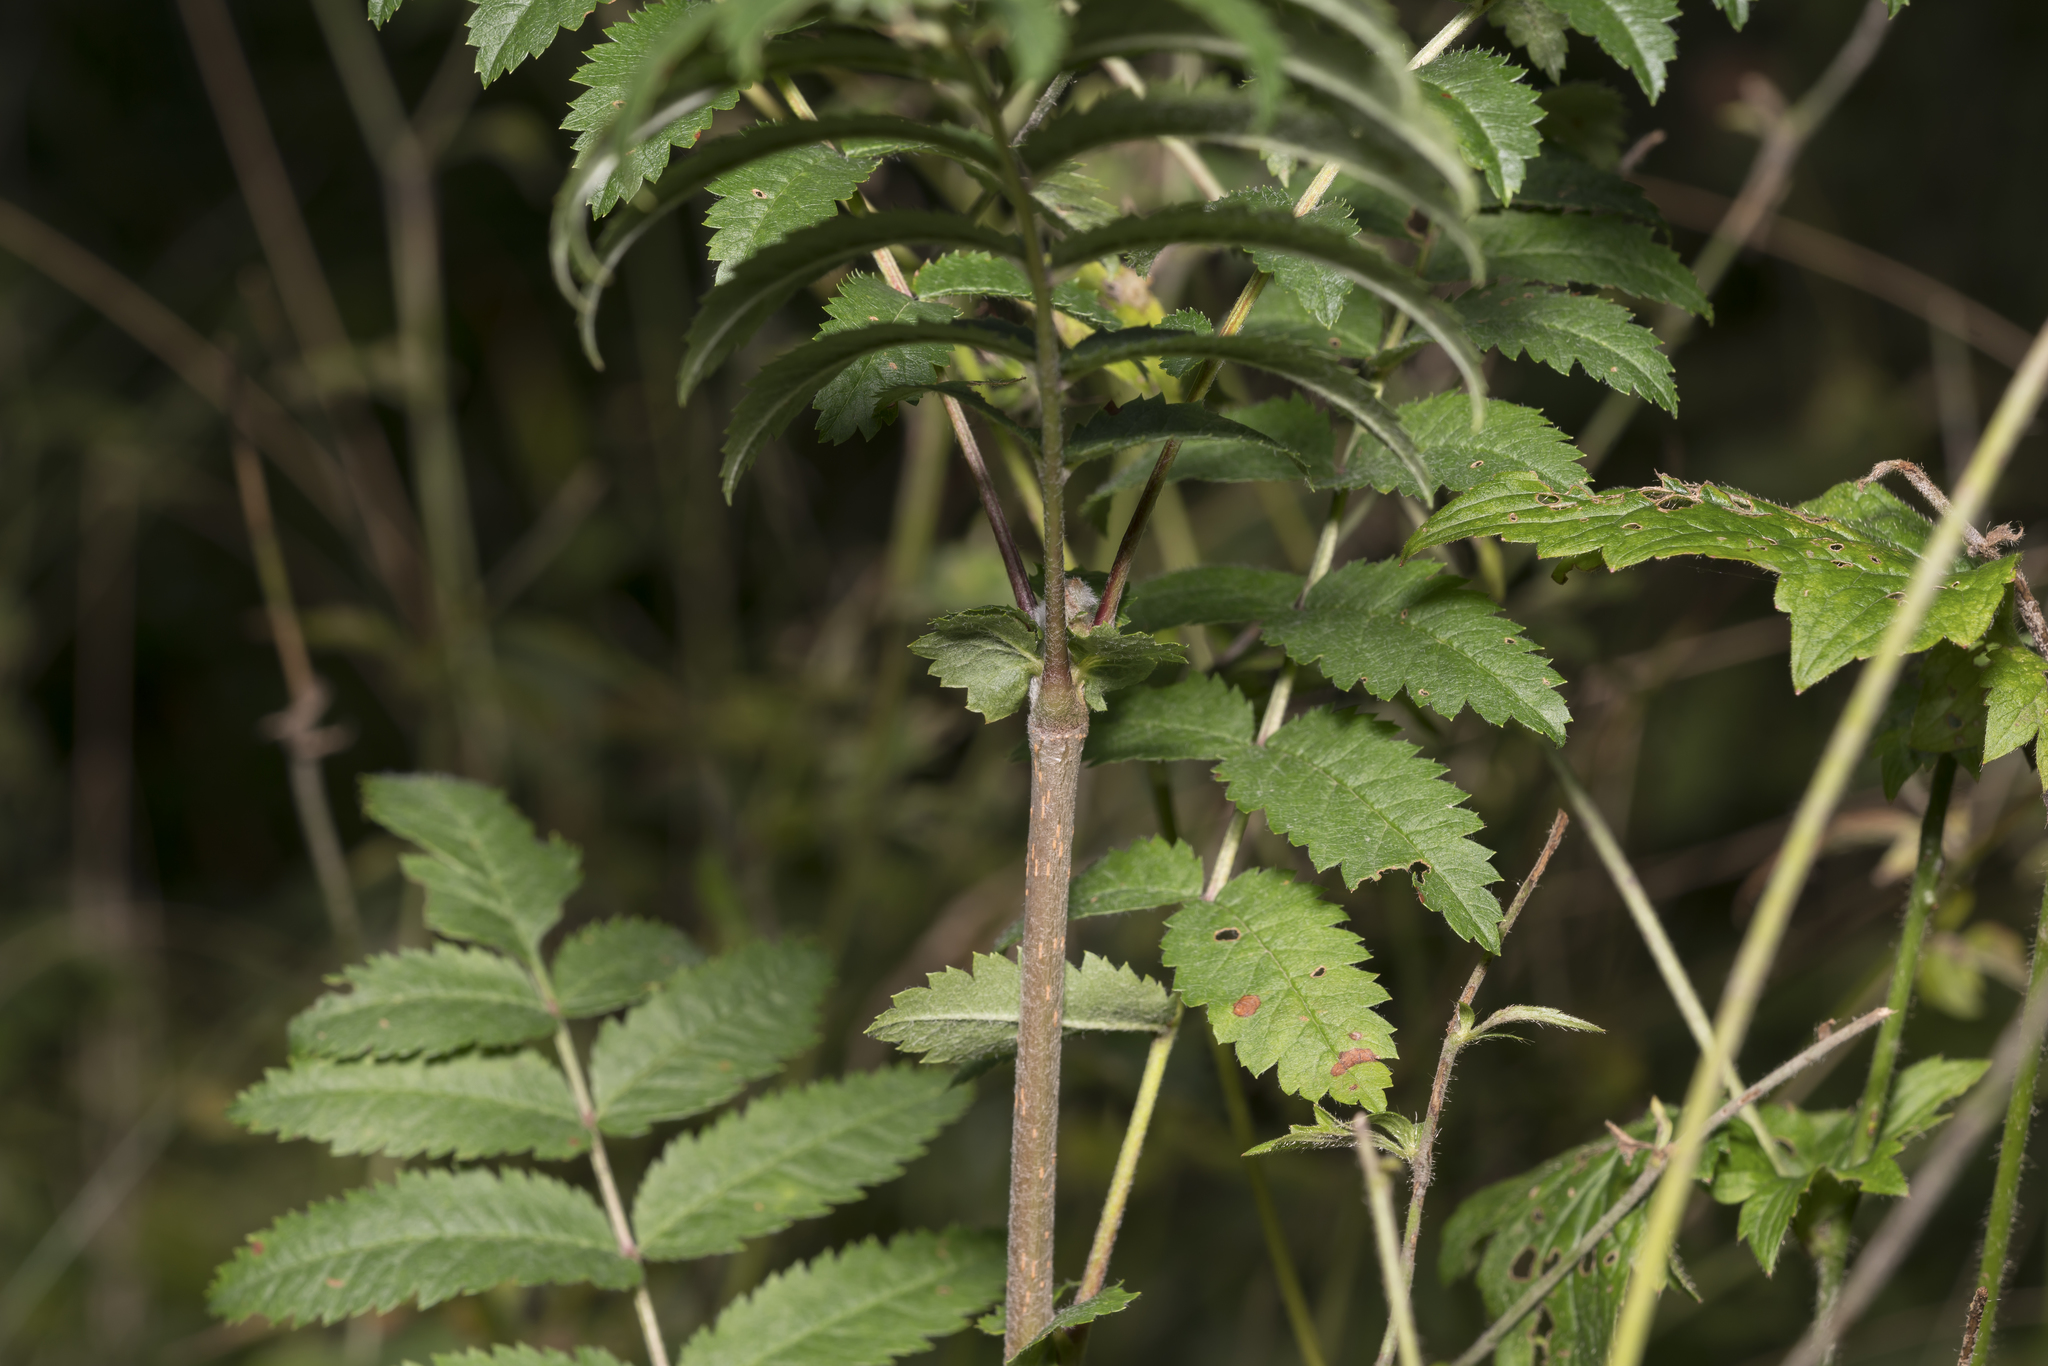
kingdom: Plantae
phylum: Tracheophyta
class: Magnoliopsida
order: Rosales
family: Rosaceae
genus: Sorbus
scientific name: Sorbus aucuparia
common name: Rowan
